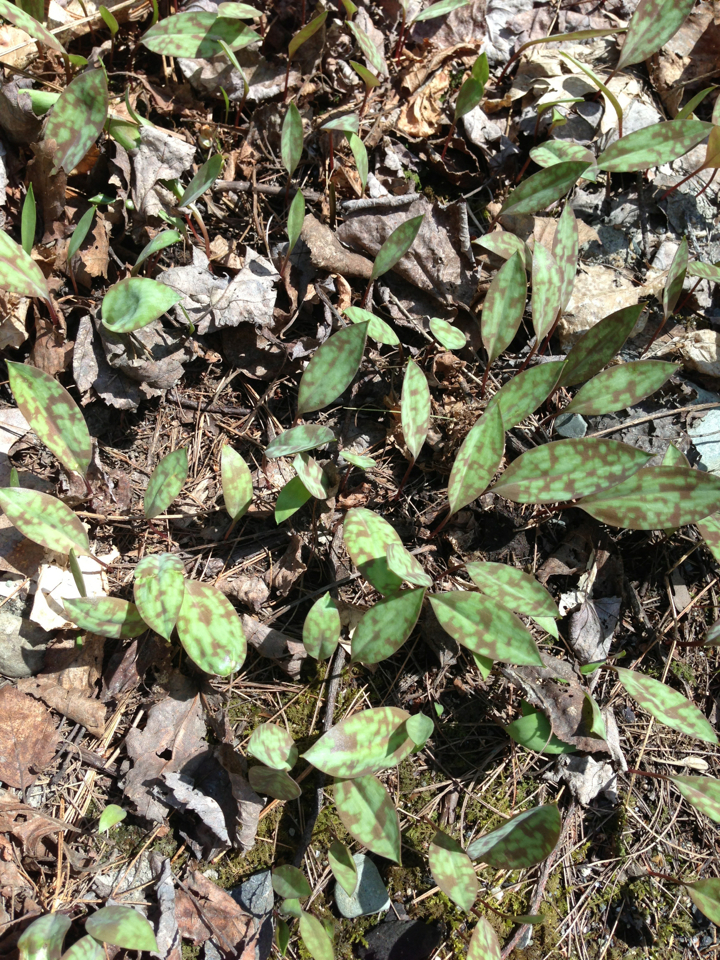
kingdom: Plantae
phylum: Tracheophyta
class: Liliopsida
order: Liliales
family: Liliaceae
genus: Erythronium
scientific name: Erythronium americanum
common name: Yellow adder's-tongue
